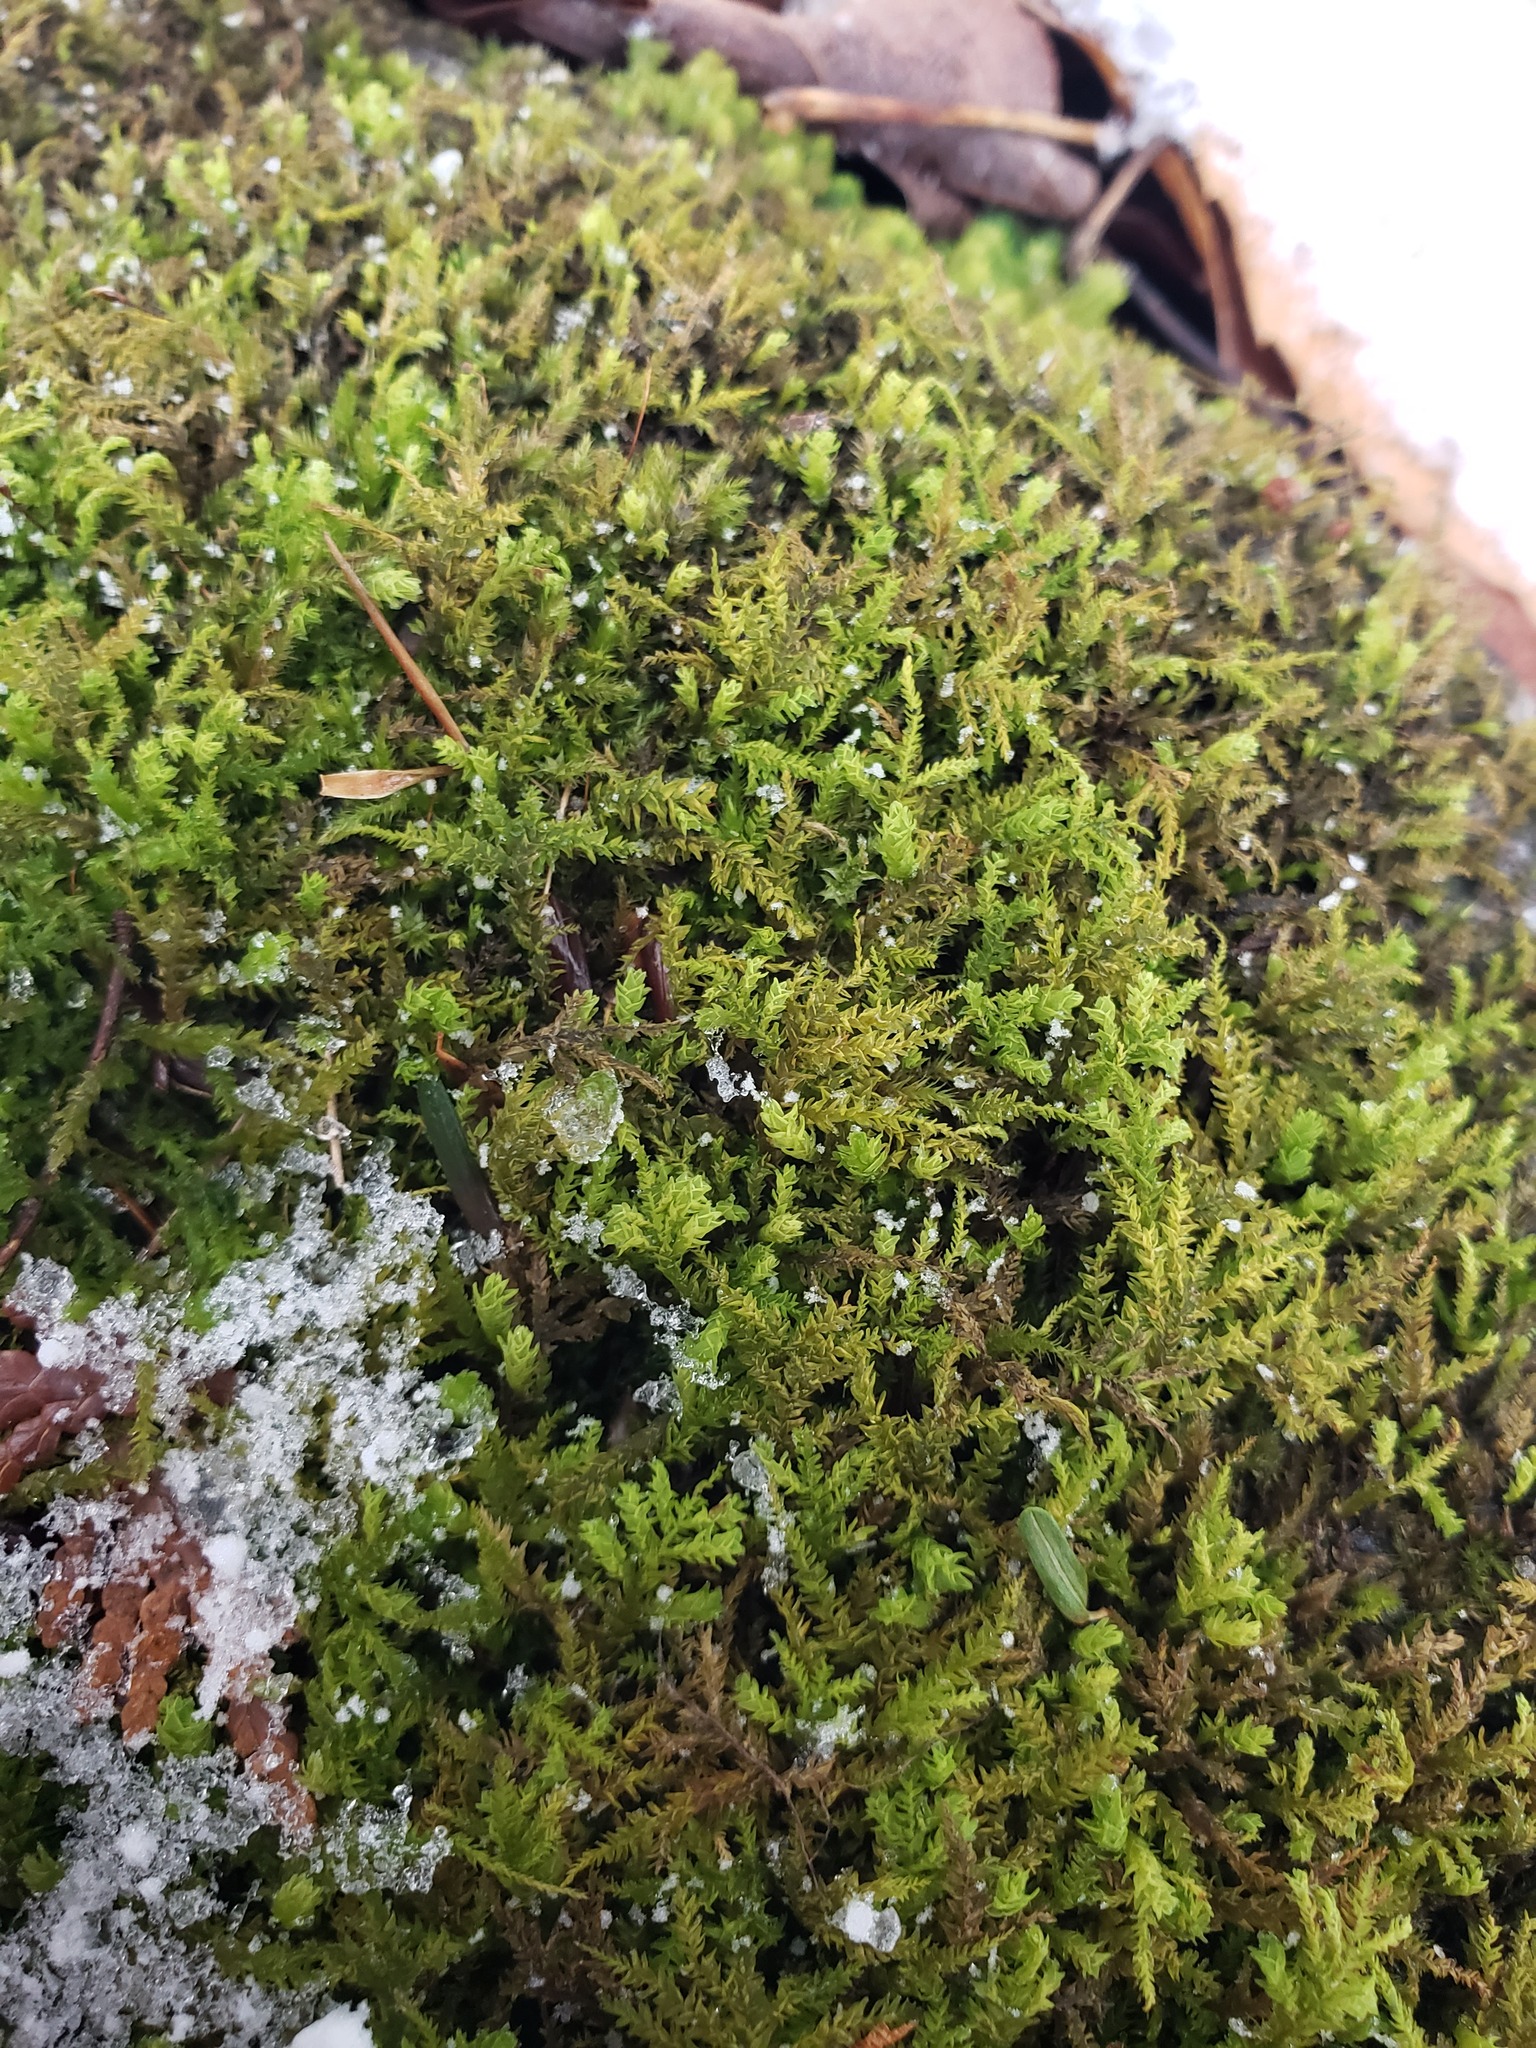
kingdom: Plantae
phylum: Bryophyta
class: Bryopsida
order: Hypnales
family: Neckeraceae
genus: Pseudanomodon
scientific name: Pseudanomodon attenuatus
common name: Tree-skirt moss
